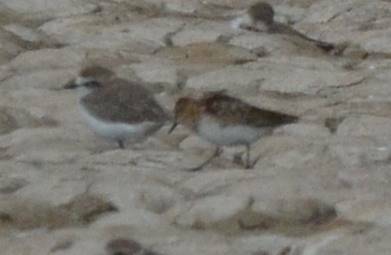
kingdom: Animalia
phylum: Chordata
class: Aves
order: Charadriiformes
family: Scolopacidae
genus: Calidris
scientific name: Calidris minuta
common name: Little stint
